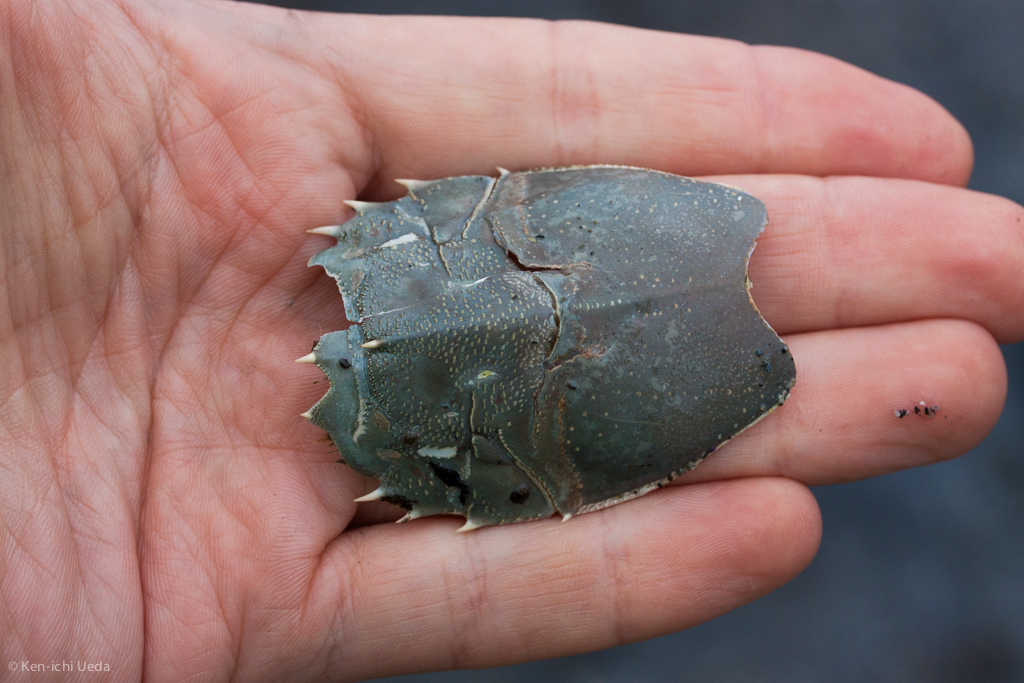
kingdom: Animalia
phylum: Arthropoda
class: Malacostraca
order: Decapoda
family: Blepharipodidae
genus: Blepharipoda
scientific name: Blepharipoda occidentalis
